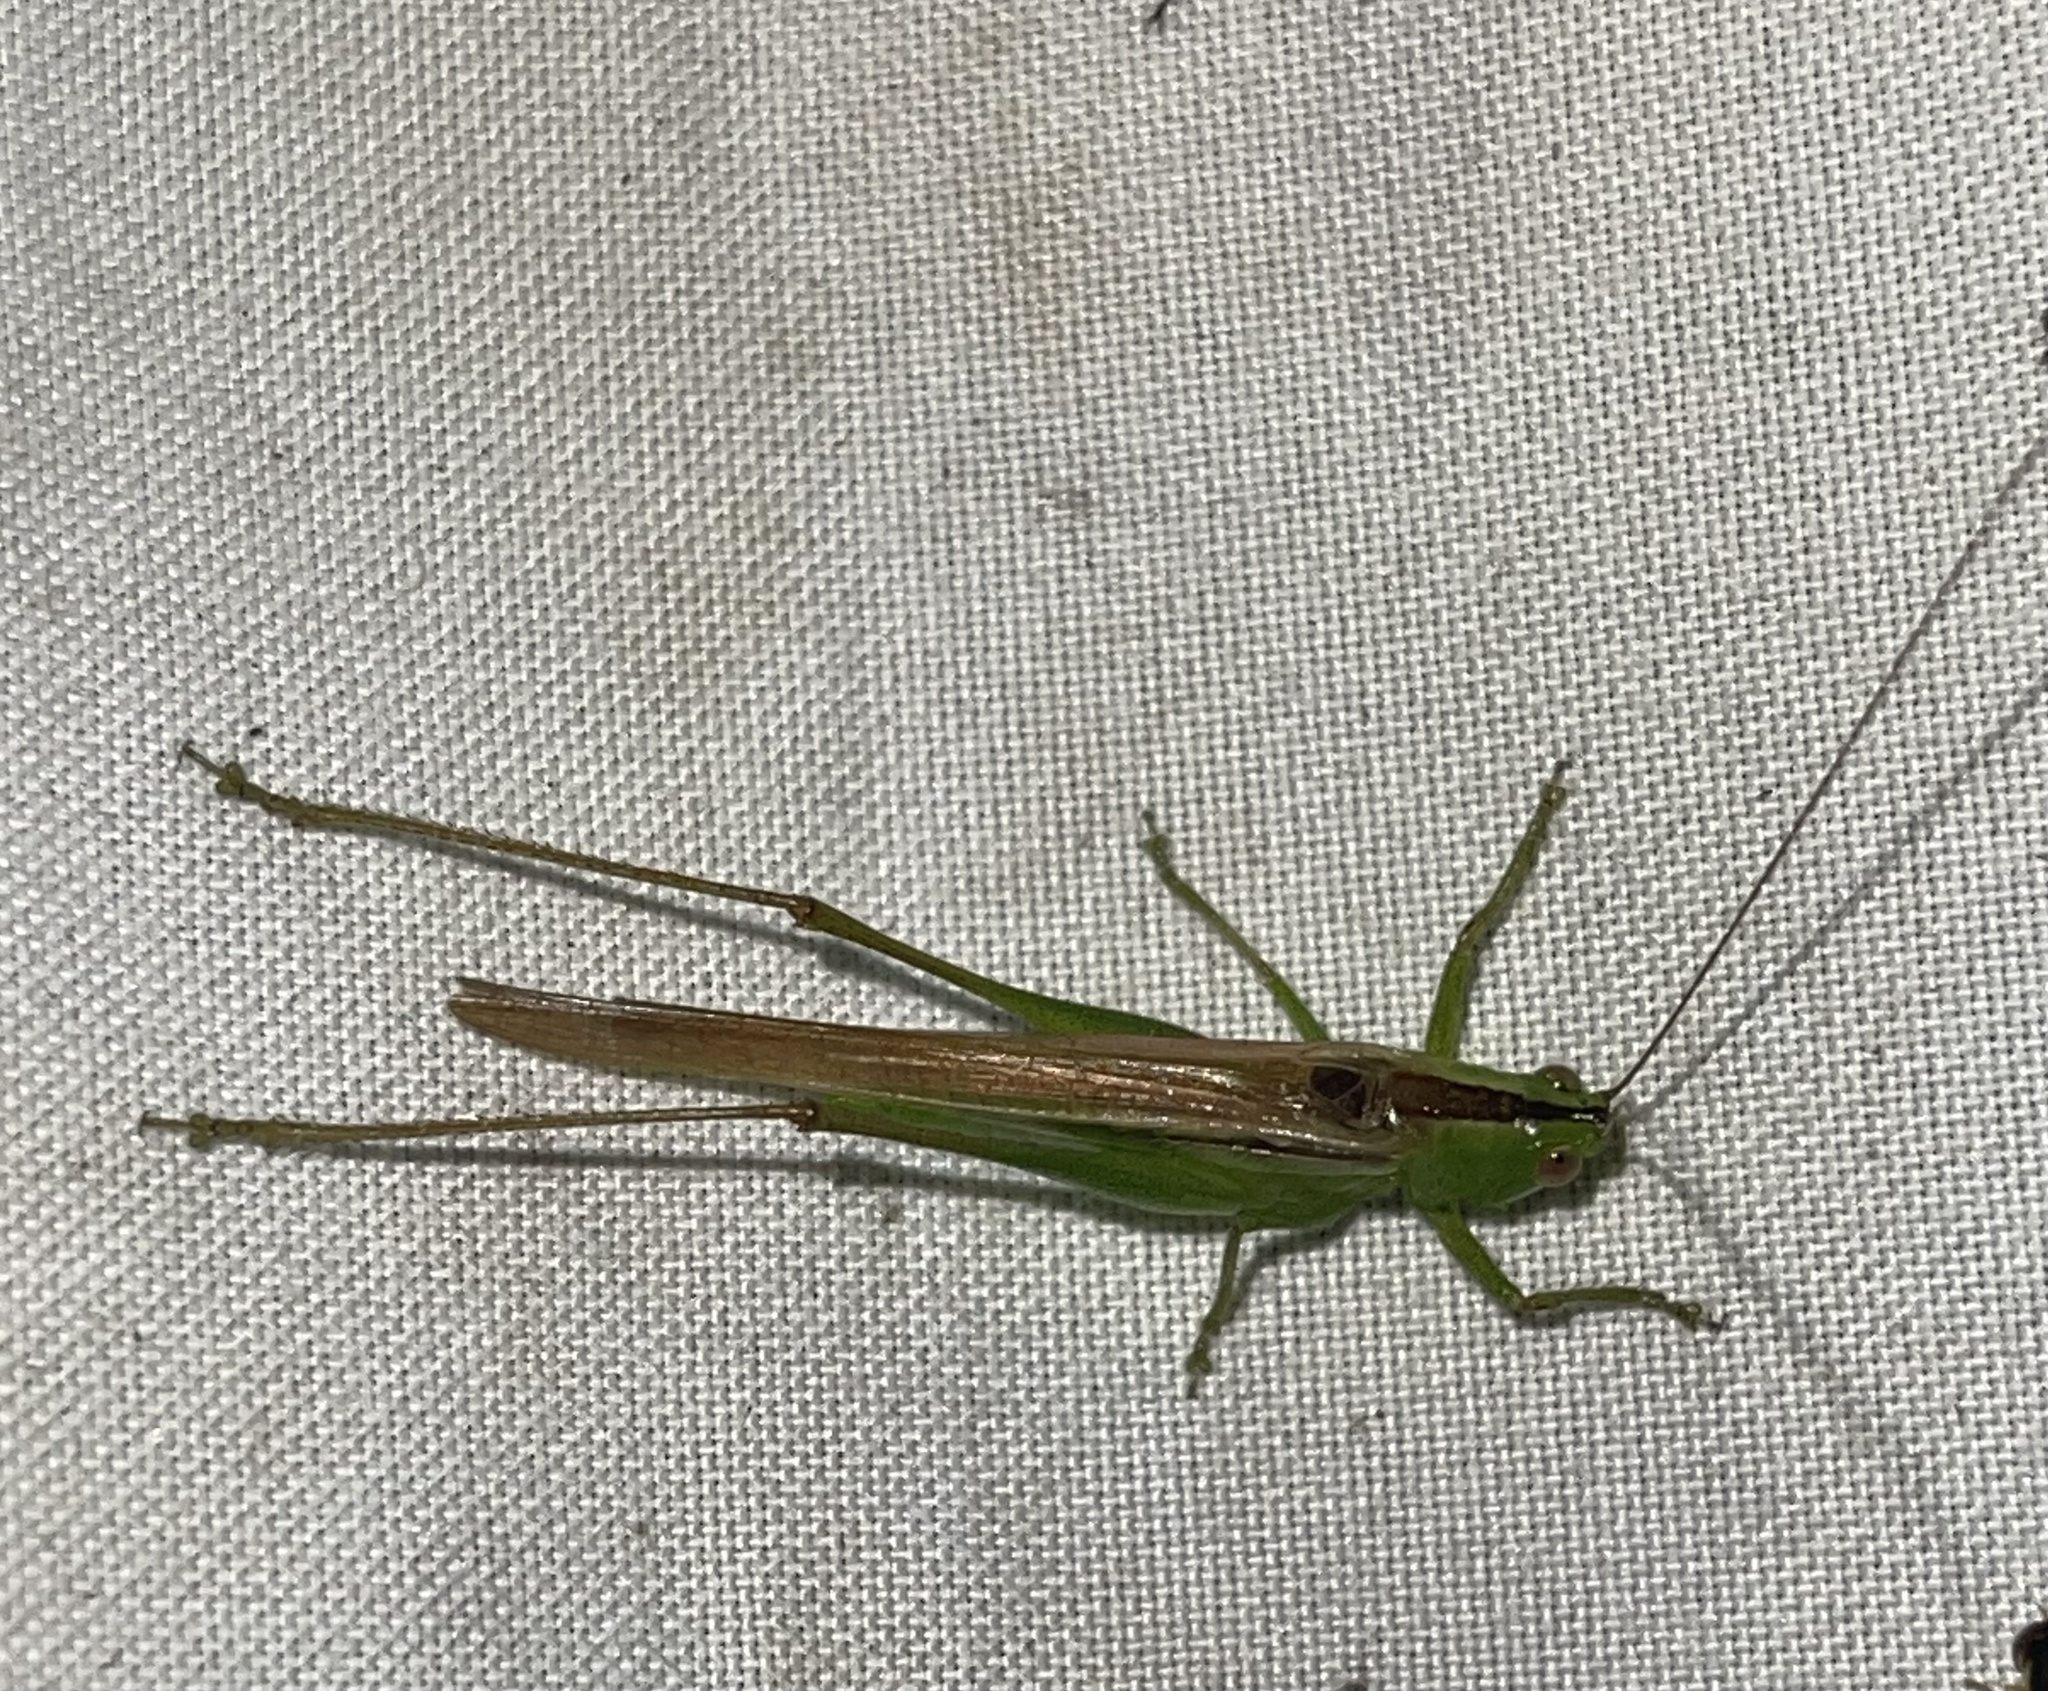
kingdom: Animalia
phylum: Arthropoda
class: Insecta
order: Orthoptera
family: Tettigoniidae
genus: Conocephalus
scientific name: Conocephalus fasciatus
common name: Slender meadow katydid
